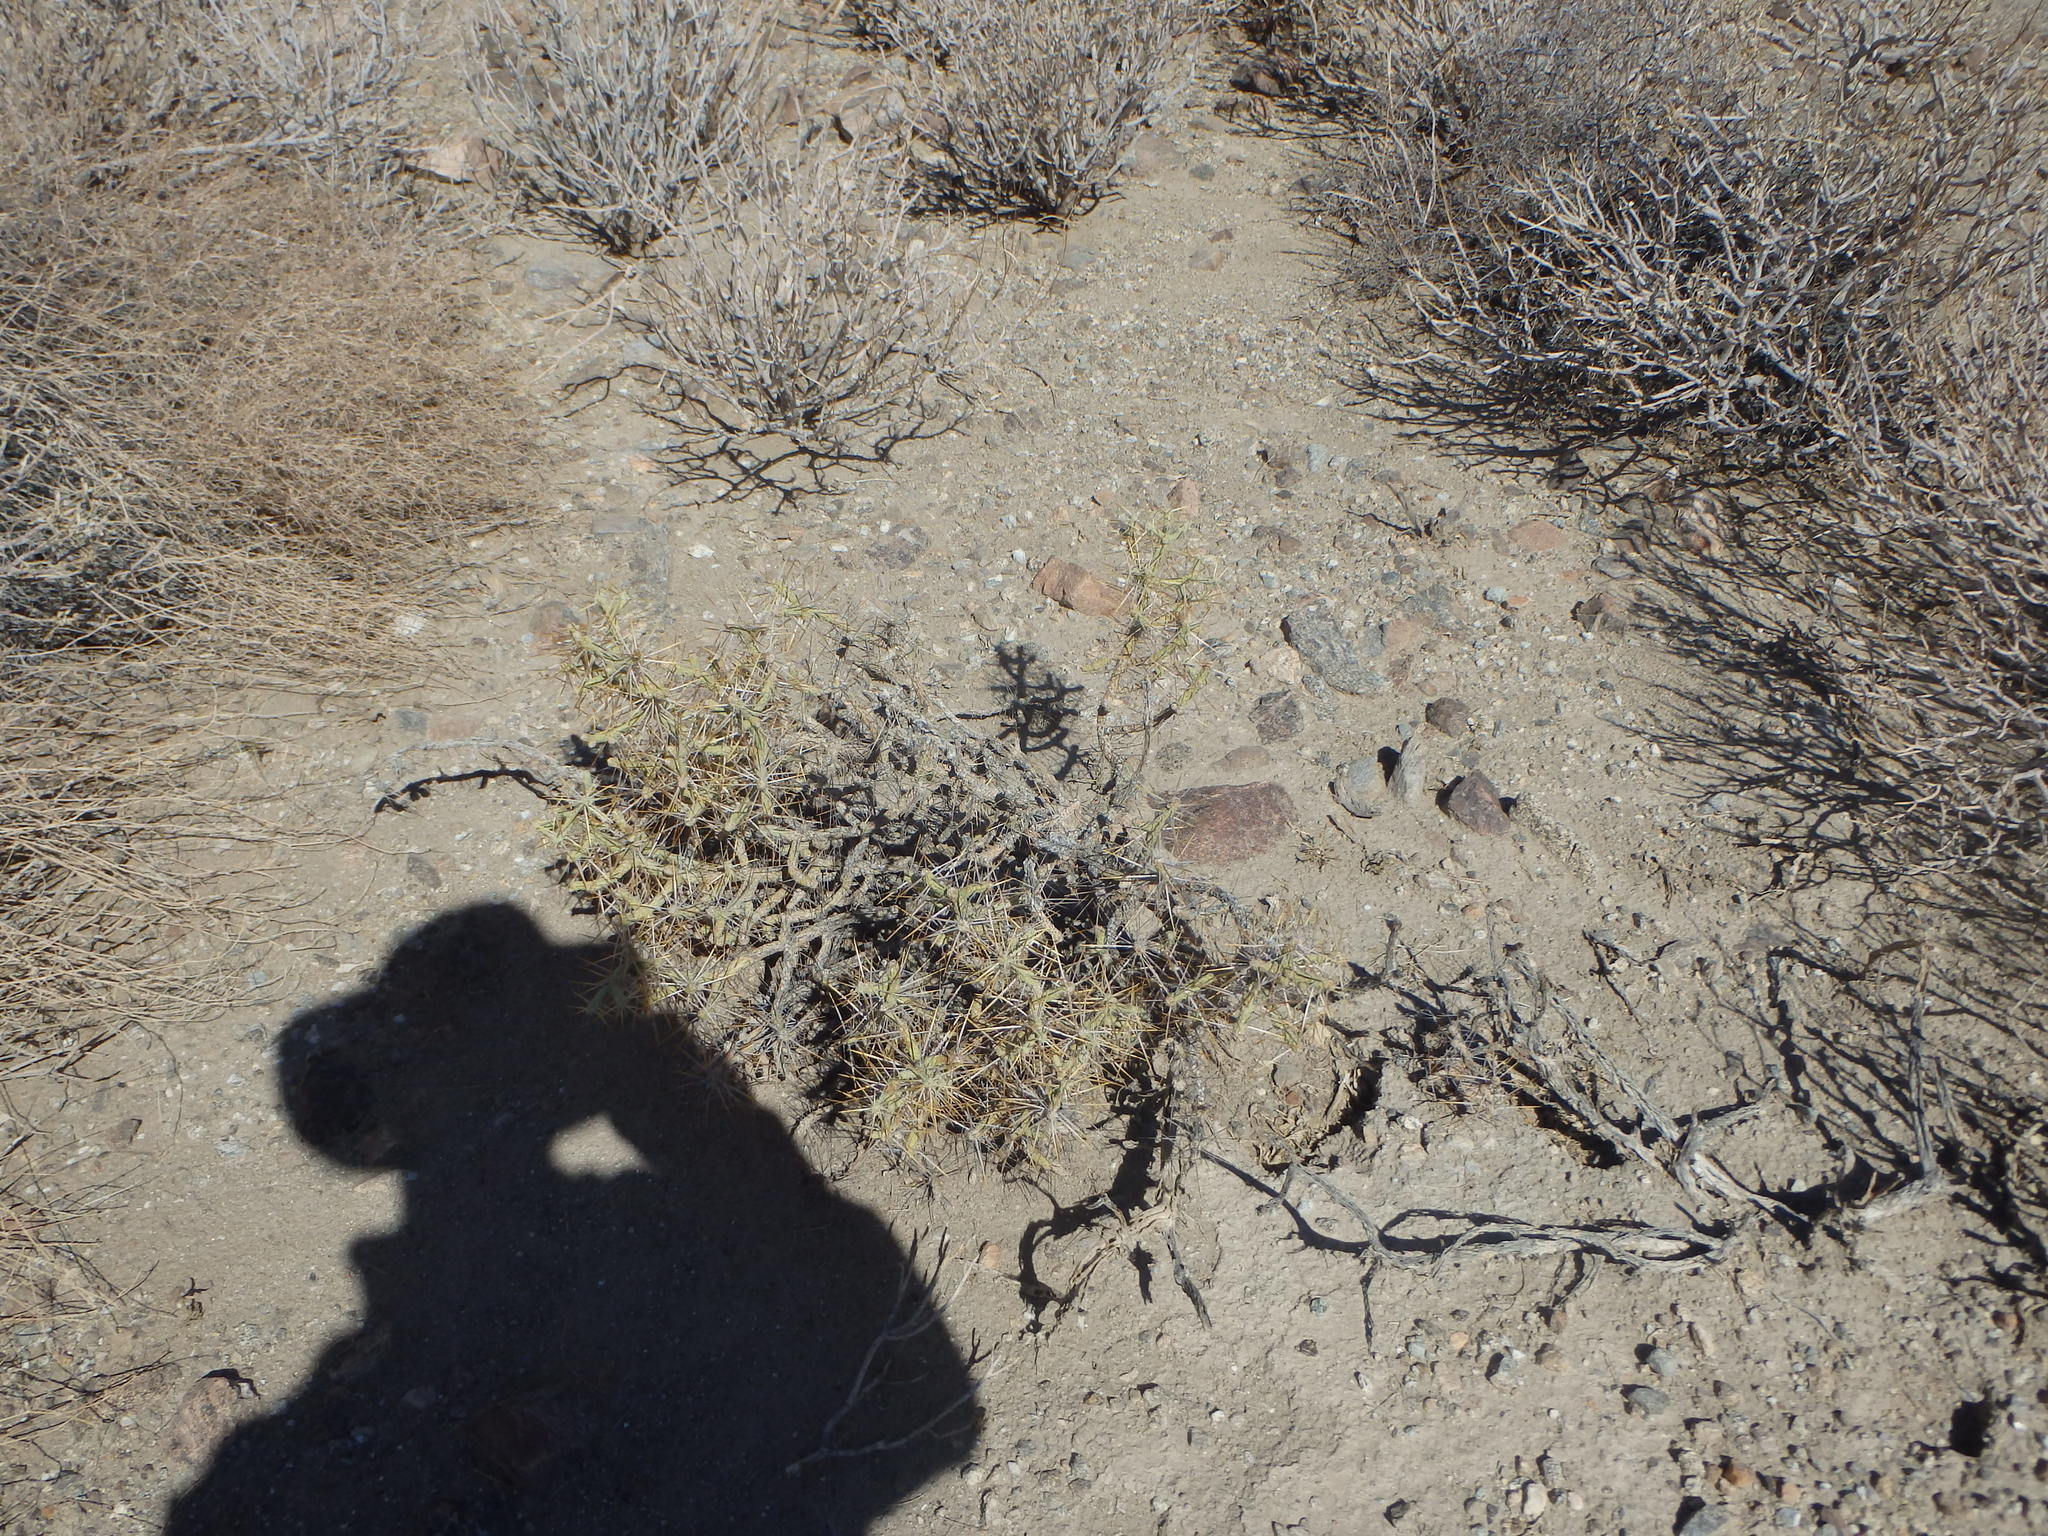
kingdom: Plantae
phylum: Tracheophyta
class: Magnoliopsida
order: Caryophyllales
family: Cactaceae
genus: Cylindropuntia
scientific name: Cylindropuntia ramosissima
